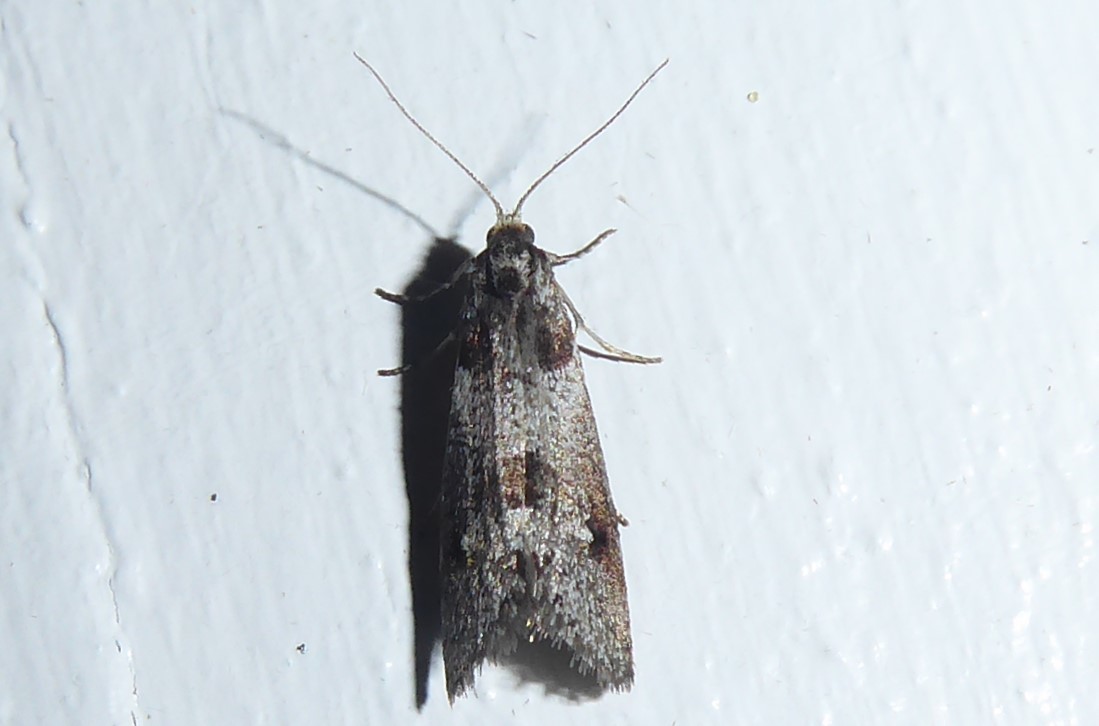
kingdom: Animalia
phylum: Arthropoda
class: Insecta
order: Lepidoptera
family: Psychidae
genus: Lepidoscia
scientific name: Lepidoscia heliochares
